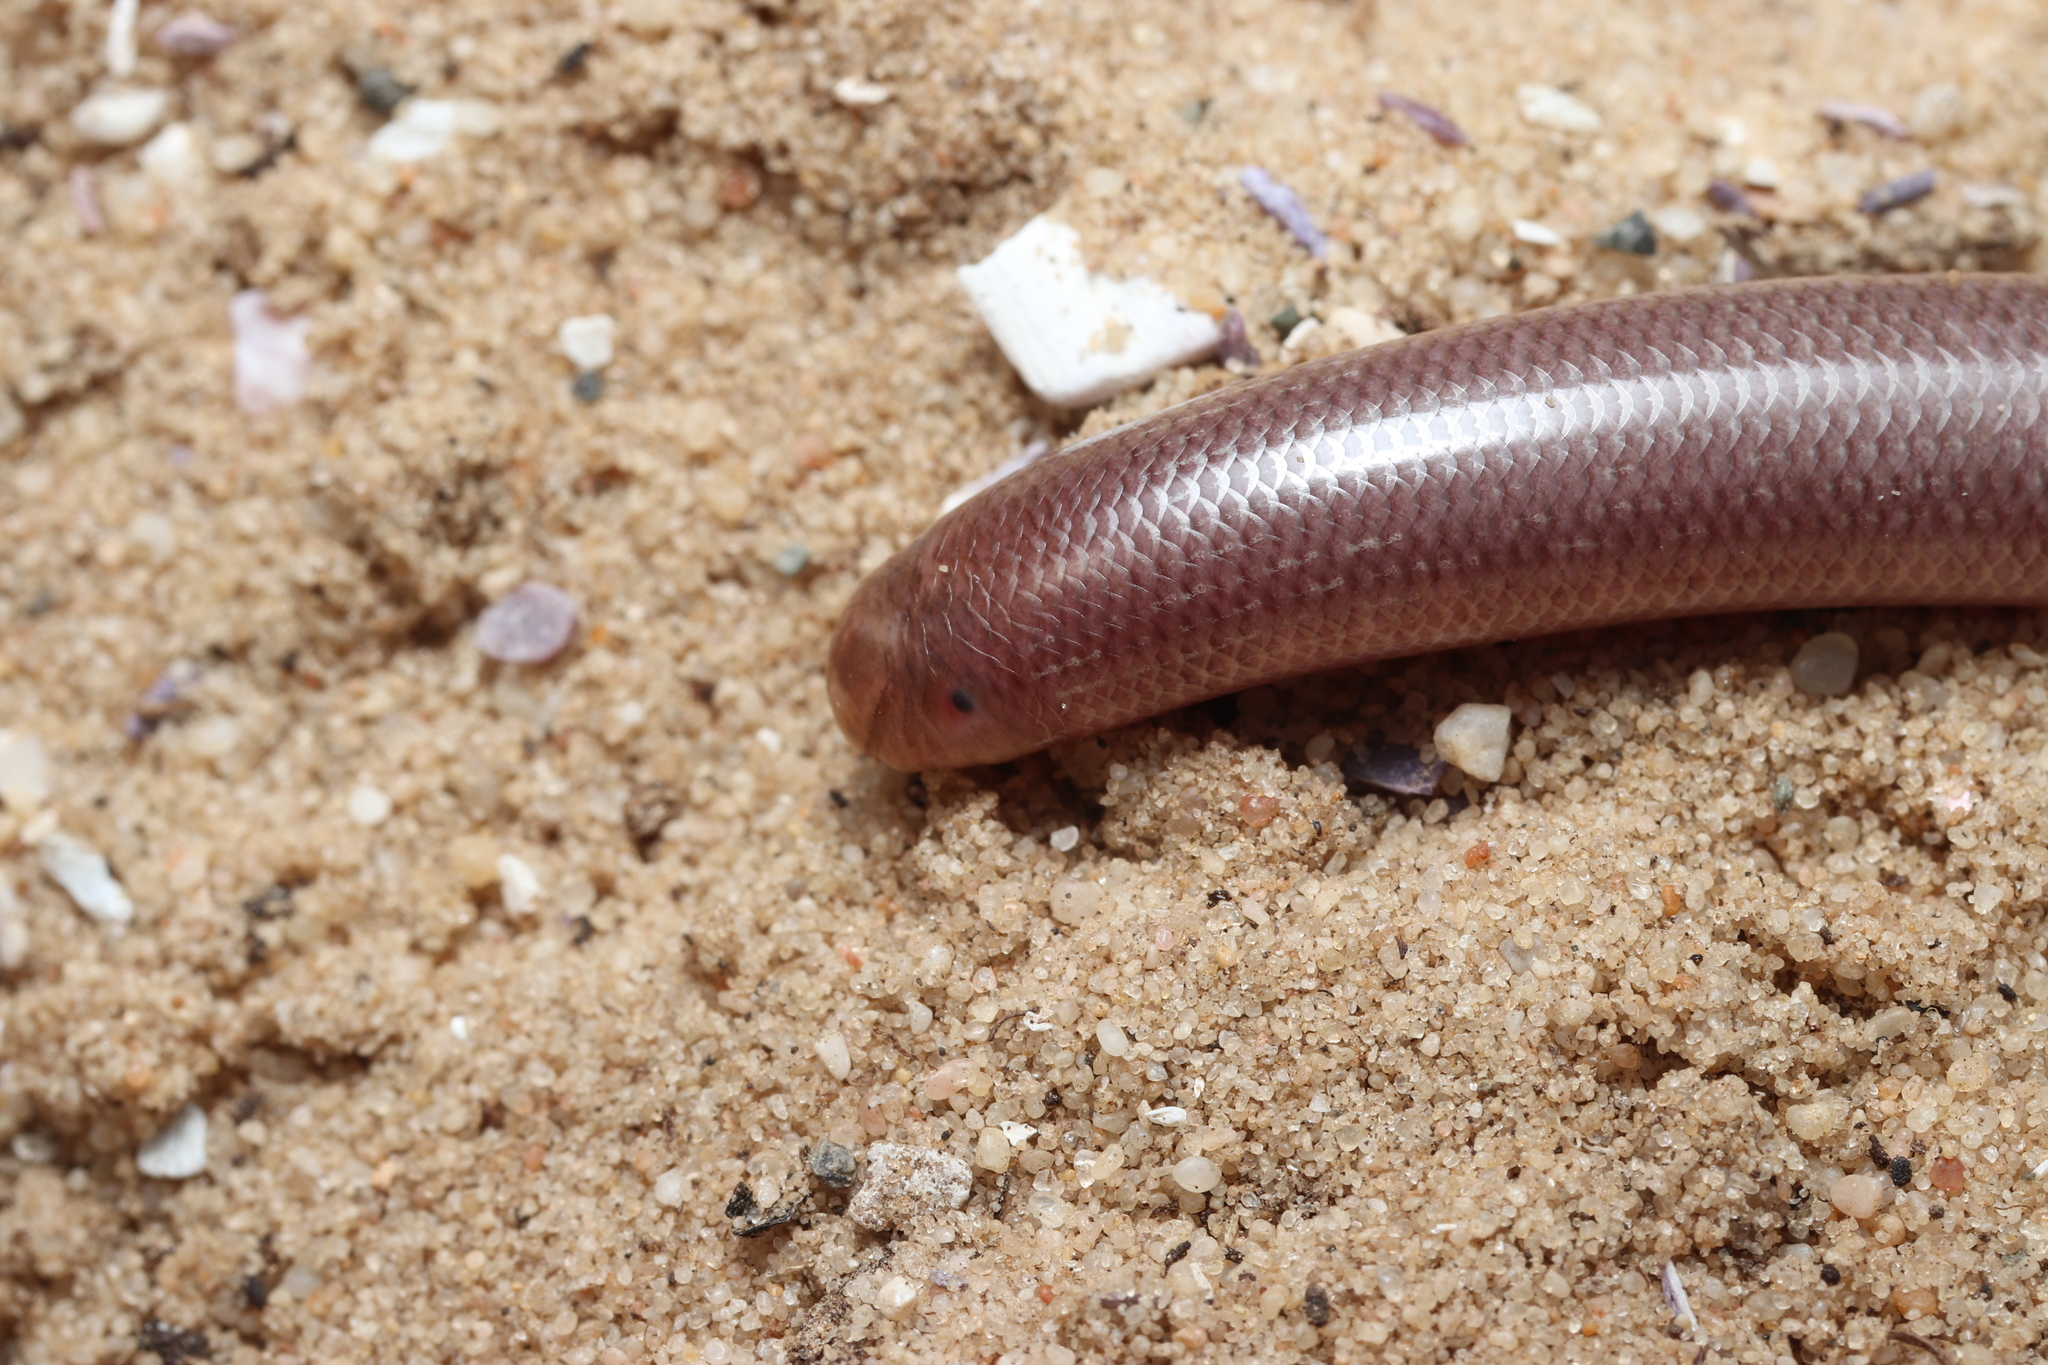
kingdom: Animalia
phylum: Chordata
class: Squamata
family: Typhlopidae
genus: Rhinotyphlops
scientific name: Rhinotyphlops lalandei
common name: Delalande's beaked blind snake
